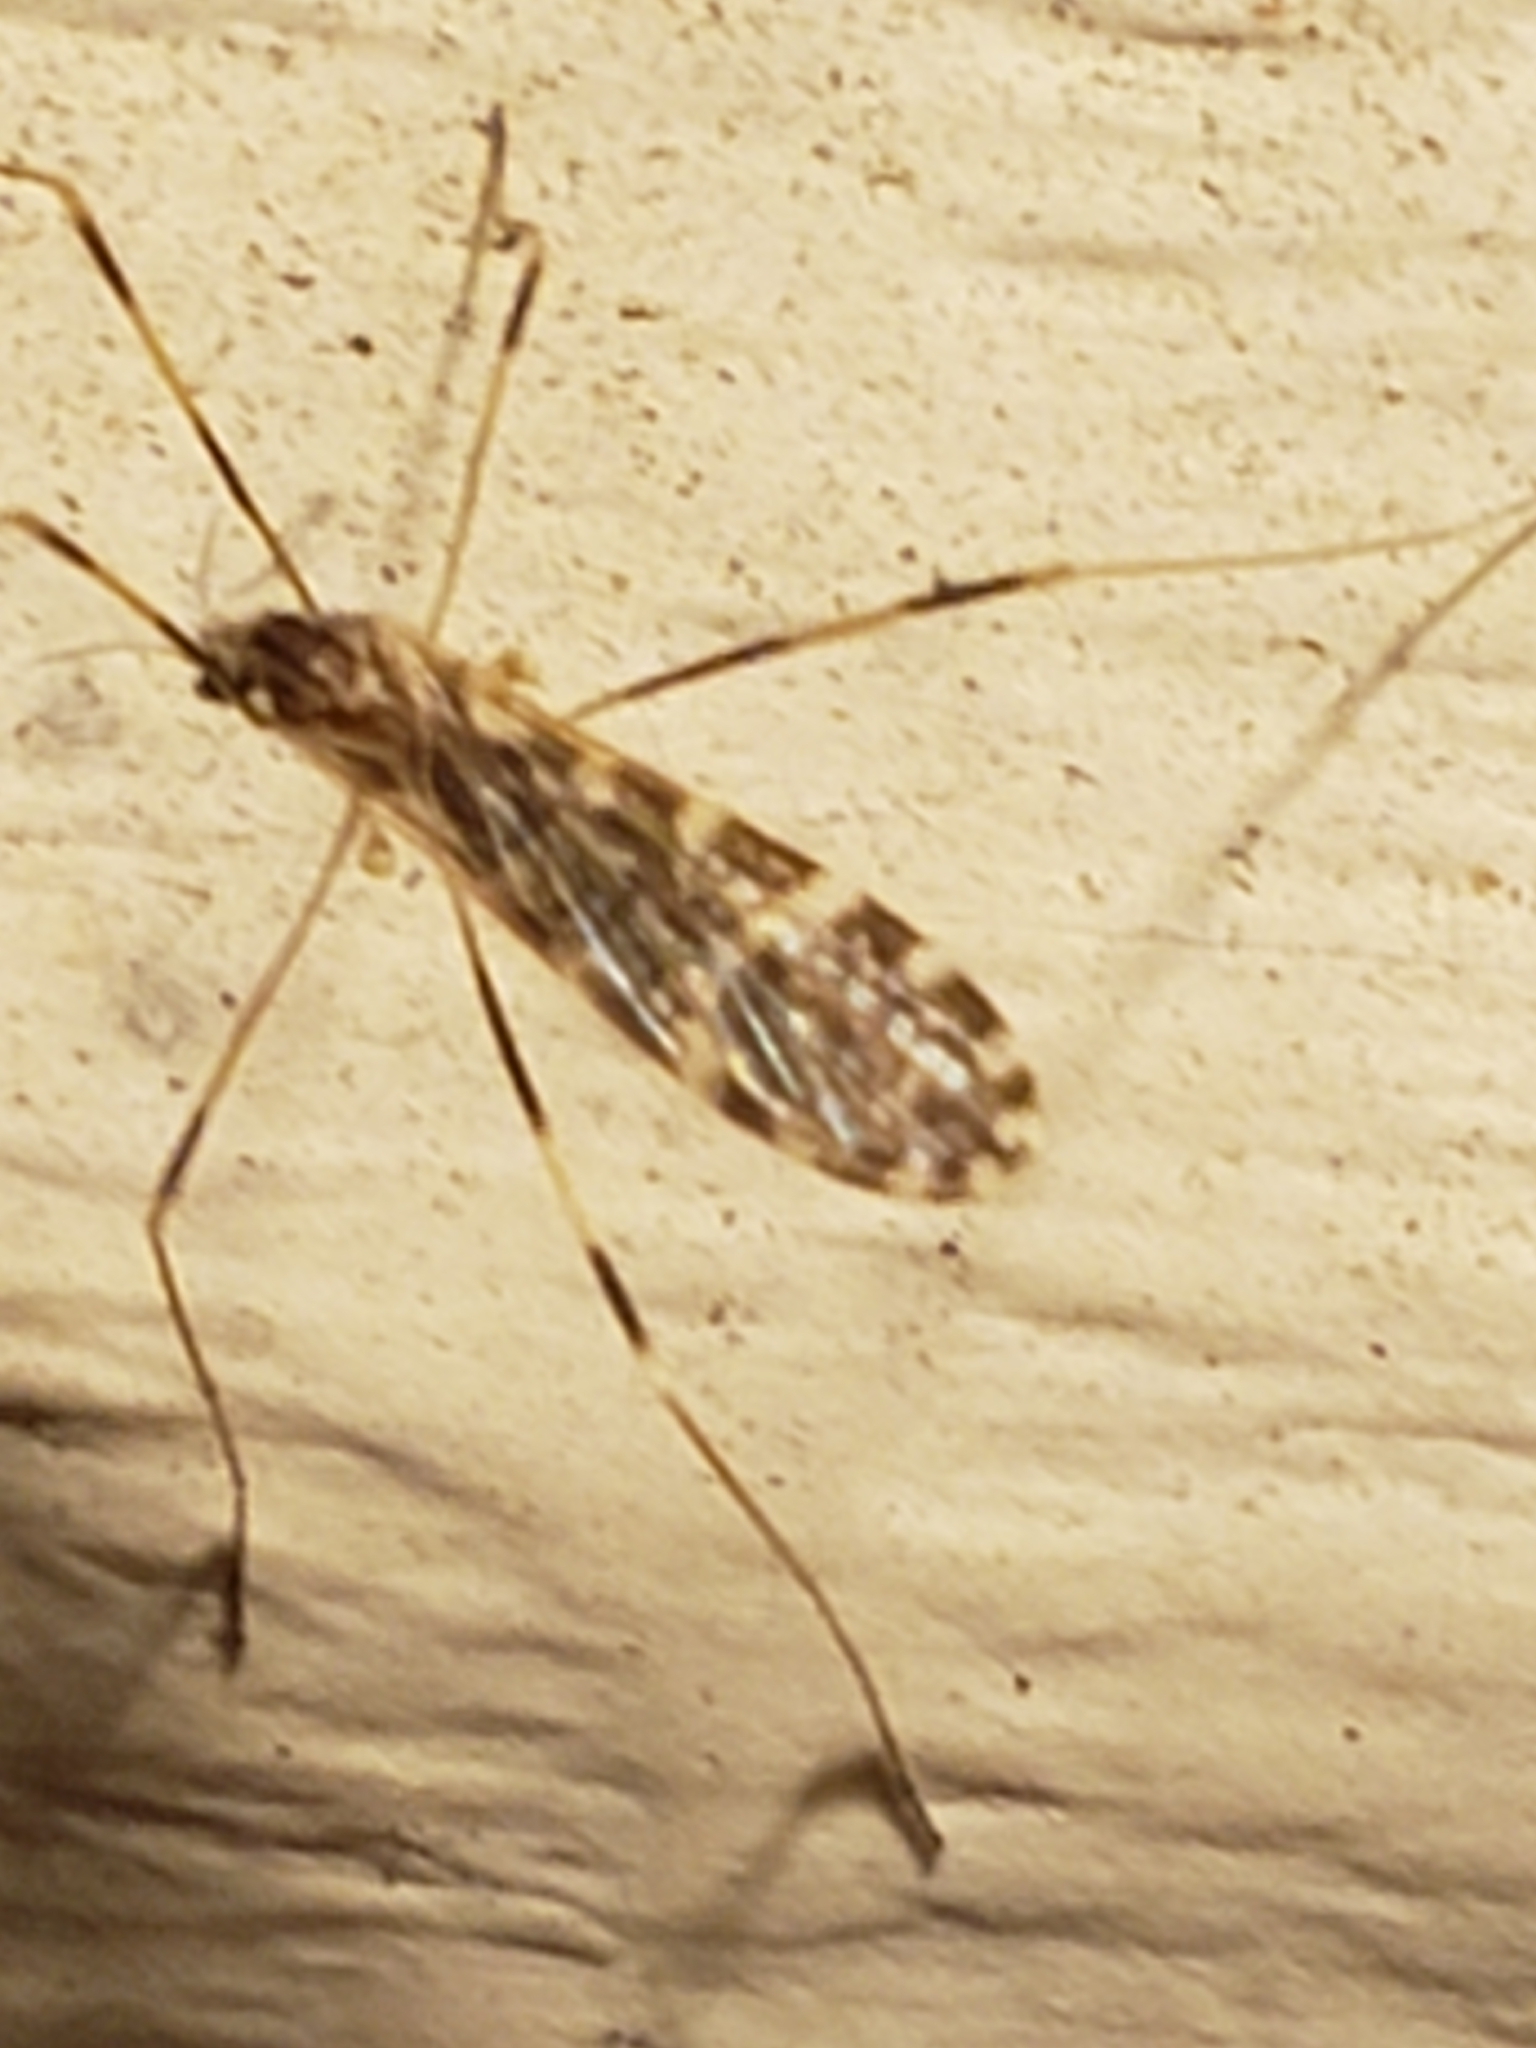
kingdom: Animalia
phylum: Arthropoda
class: Insecta
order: Diptera
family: Limoniidae
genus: Erioptera
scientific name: Erioptera caliptera
